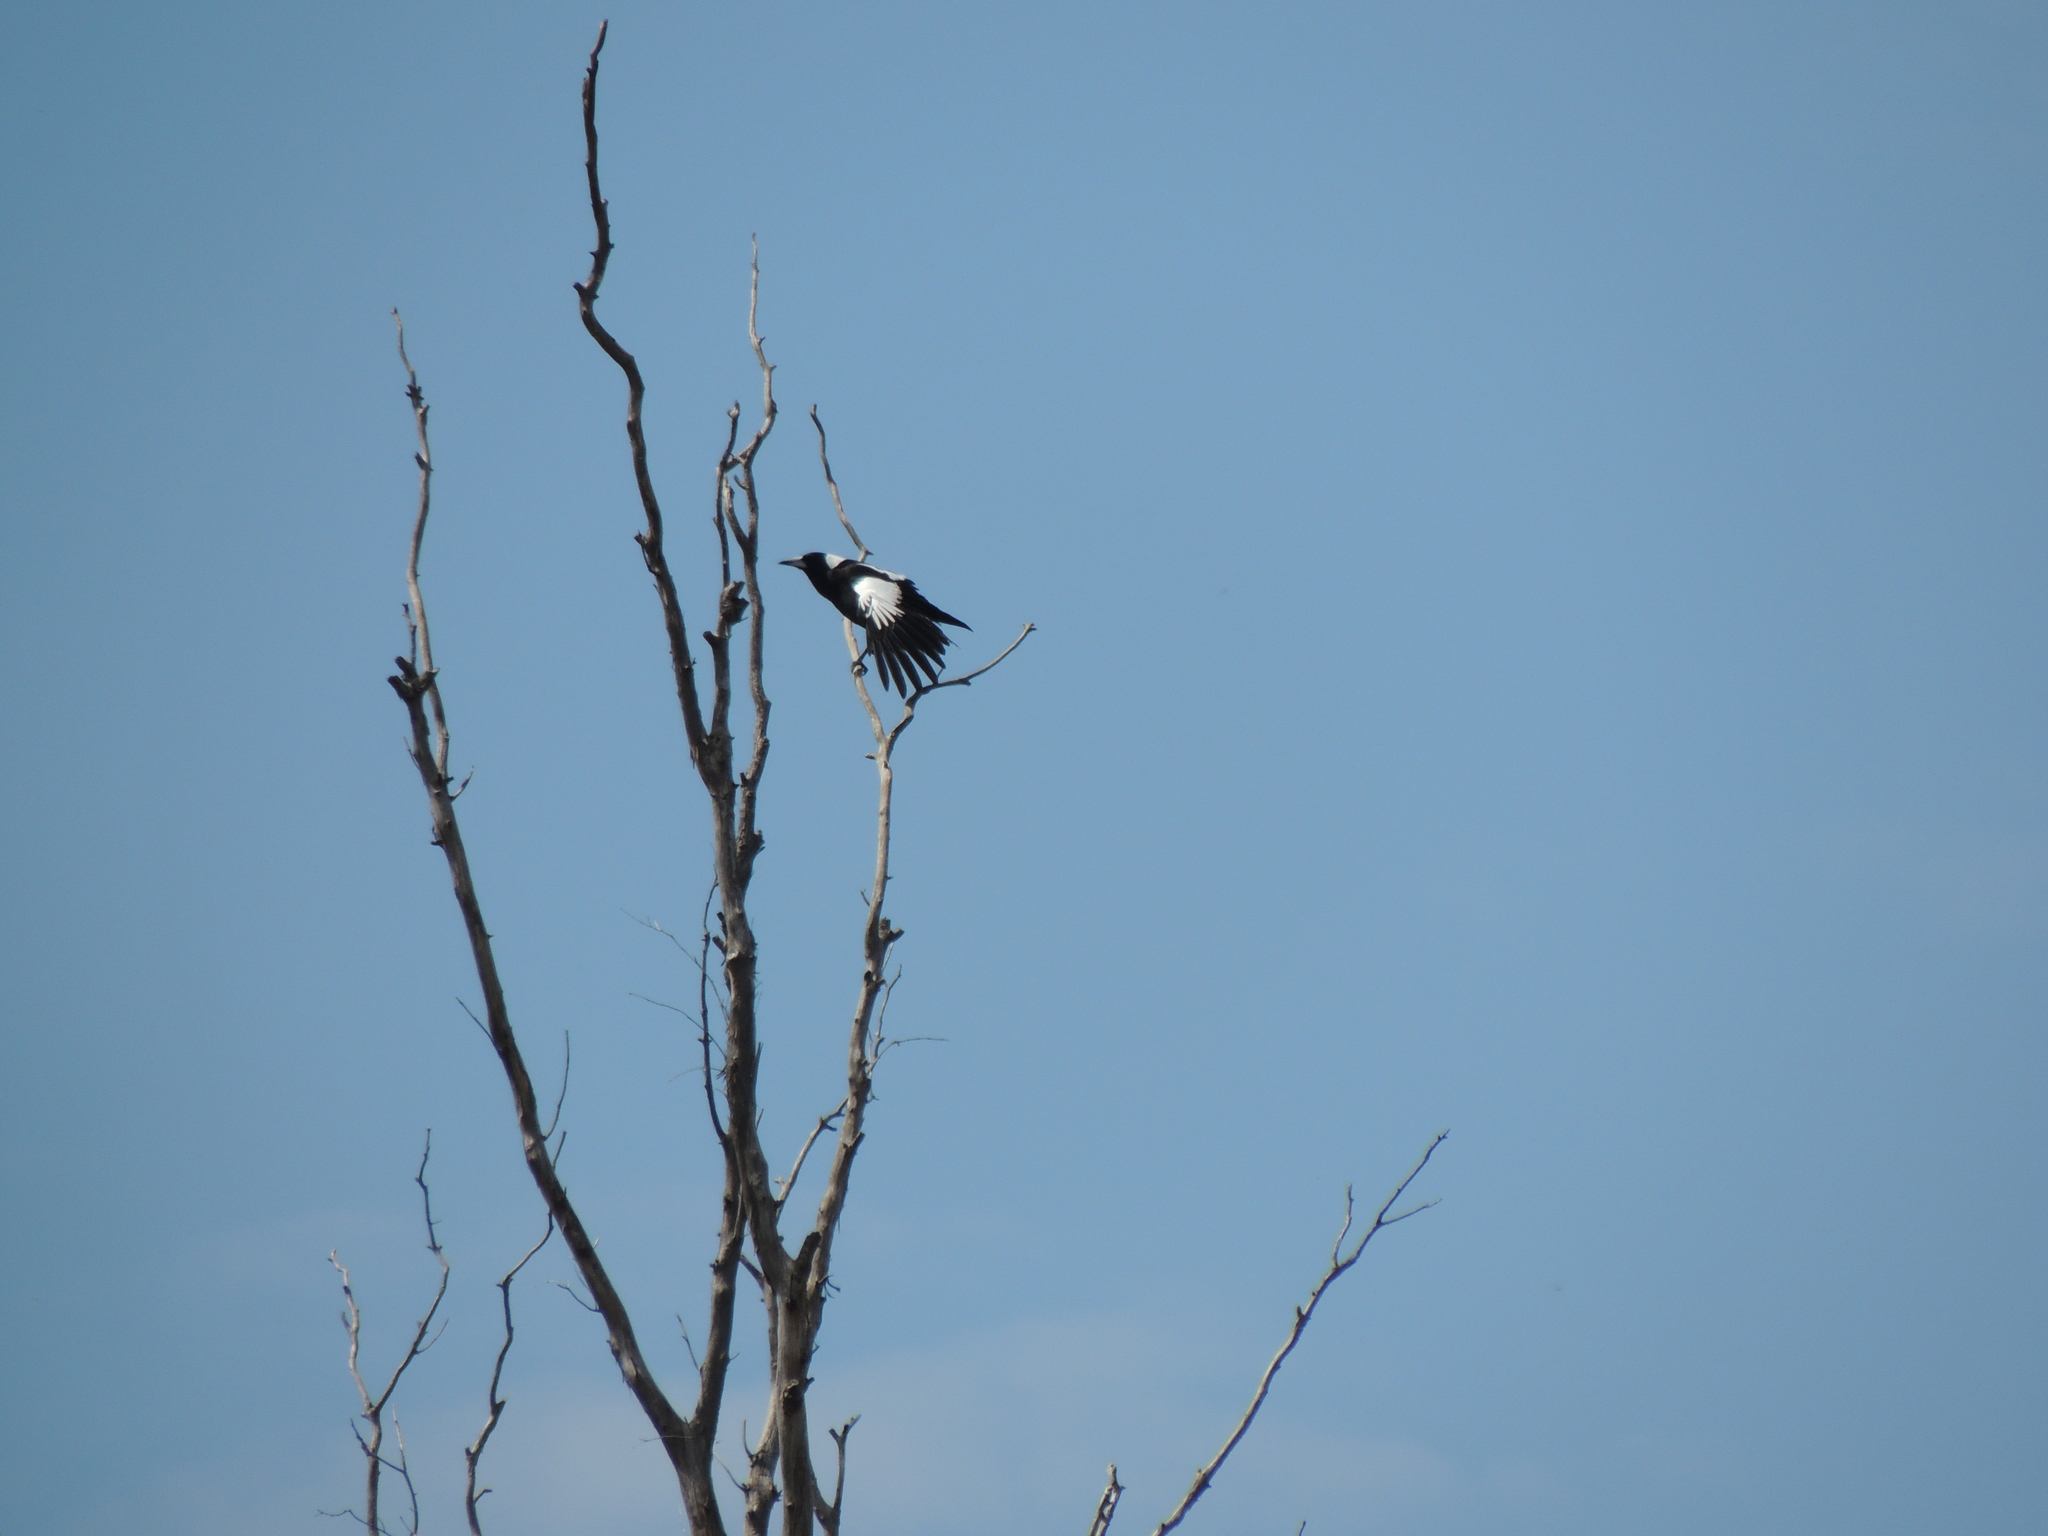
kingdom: Animalia
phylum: Chordata
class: Aves
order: Passeriformes
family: Cracticidae
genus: Gymnorhina
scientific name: Gymnorhina tibicen
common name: Australian magpie
